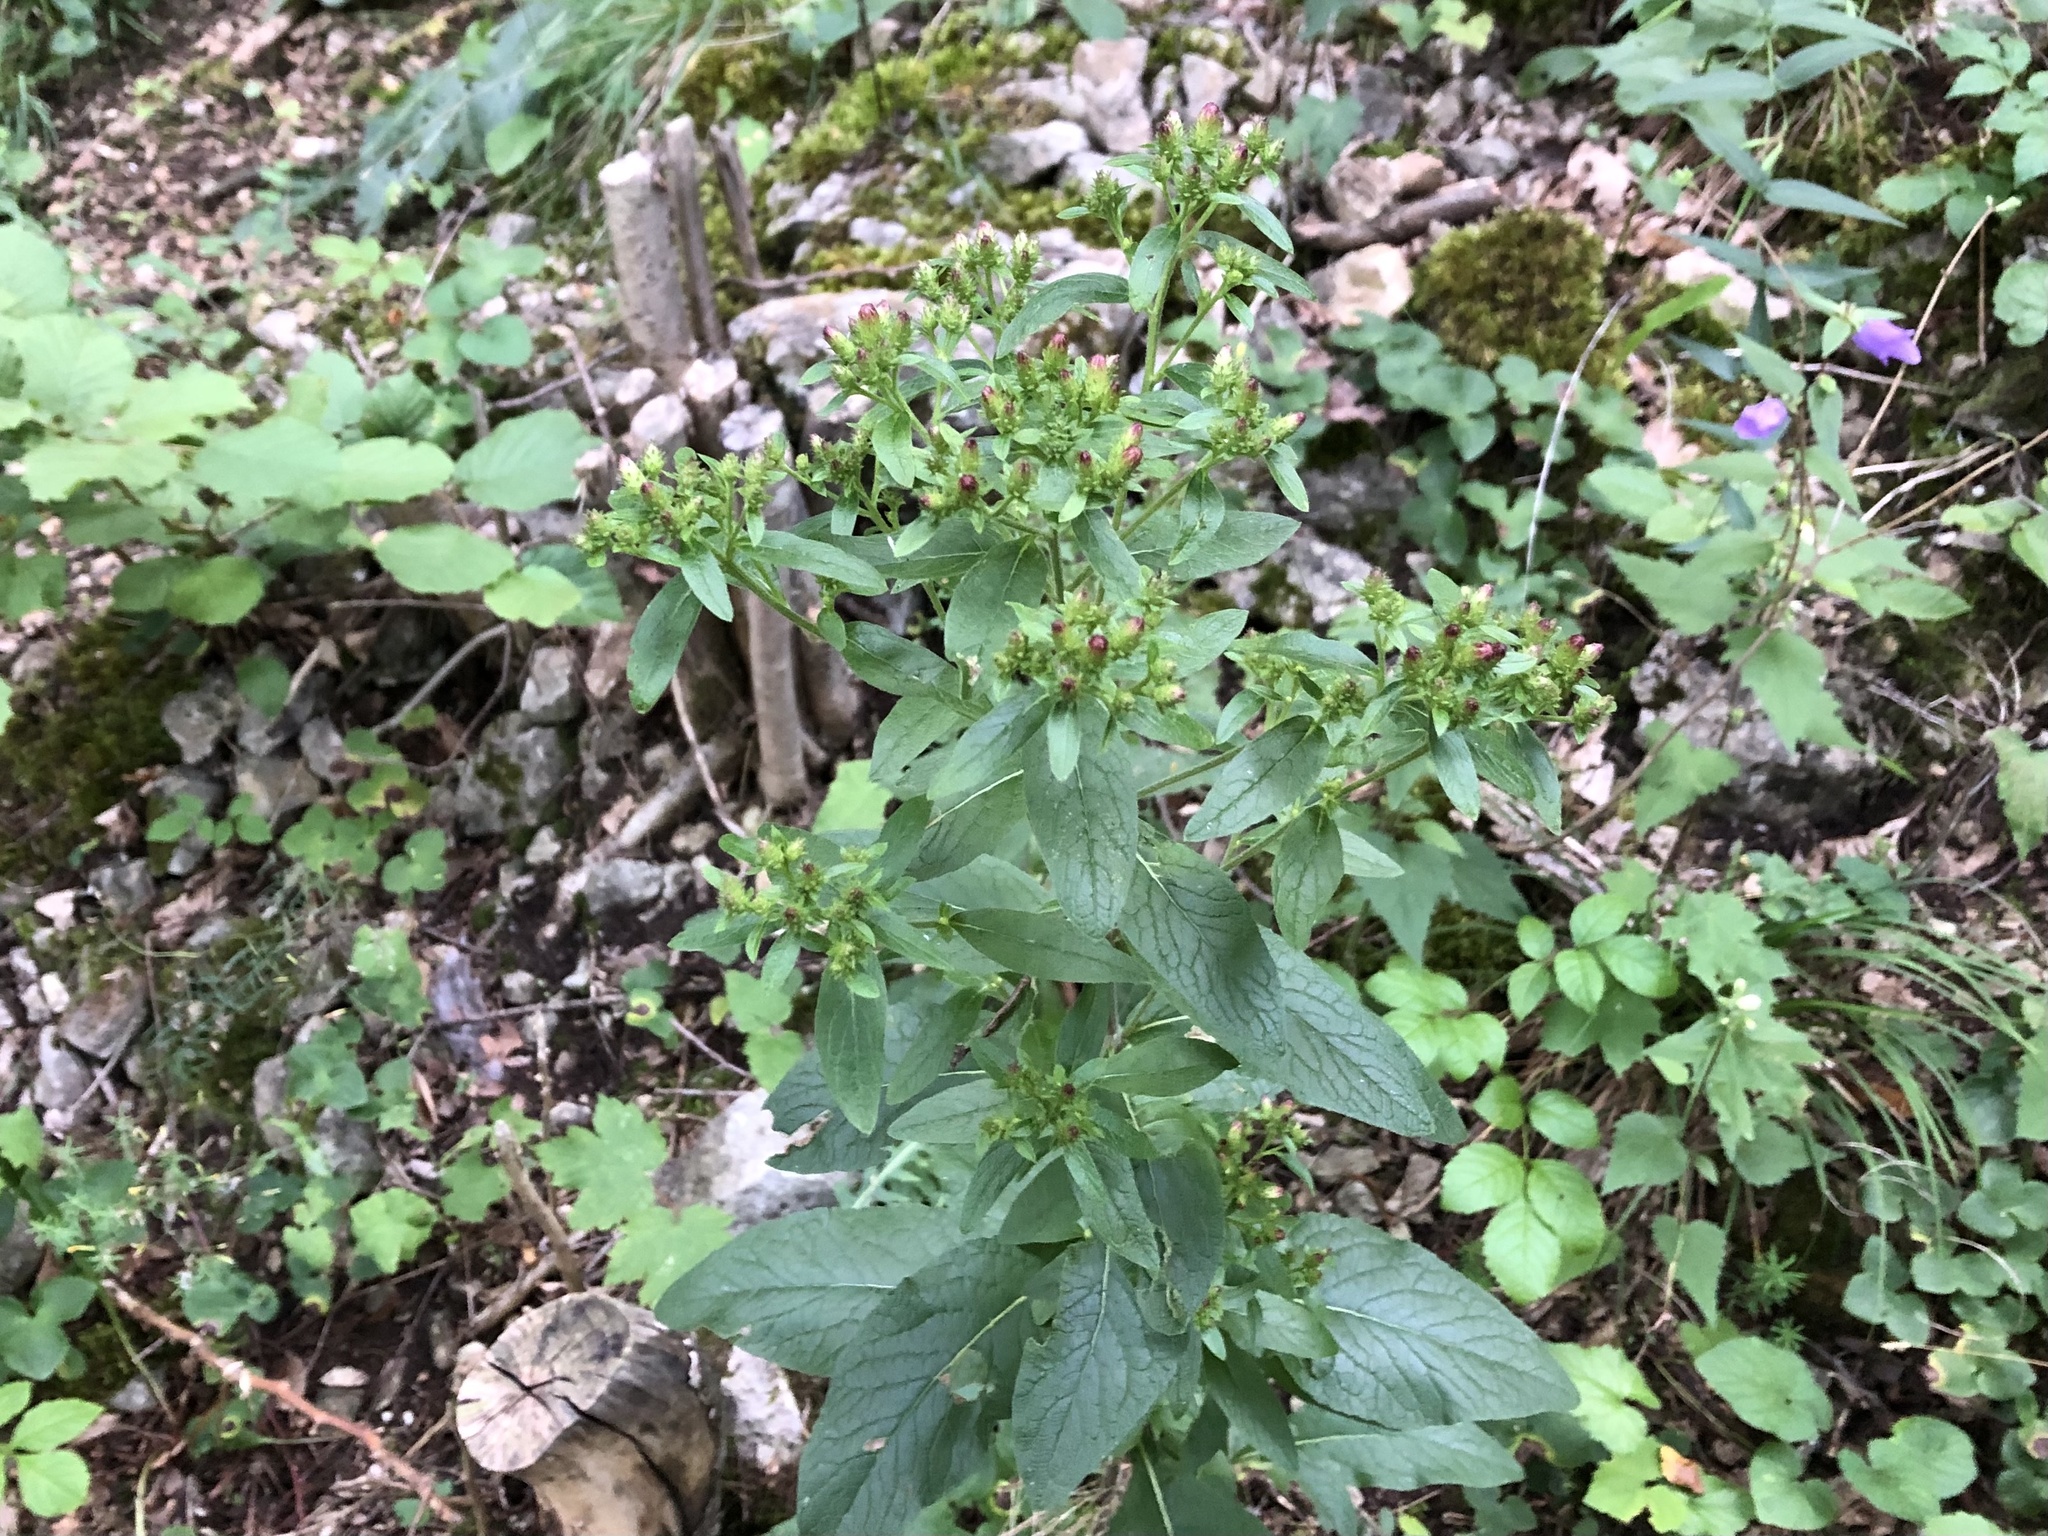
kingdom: Plantae
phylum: Tracheophyta
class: Magnoliopsida
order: Asterales
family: Asteraceae
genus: Pentanema
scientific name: Pentanema squarrosum
